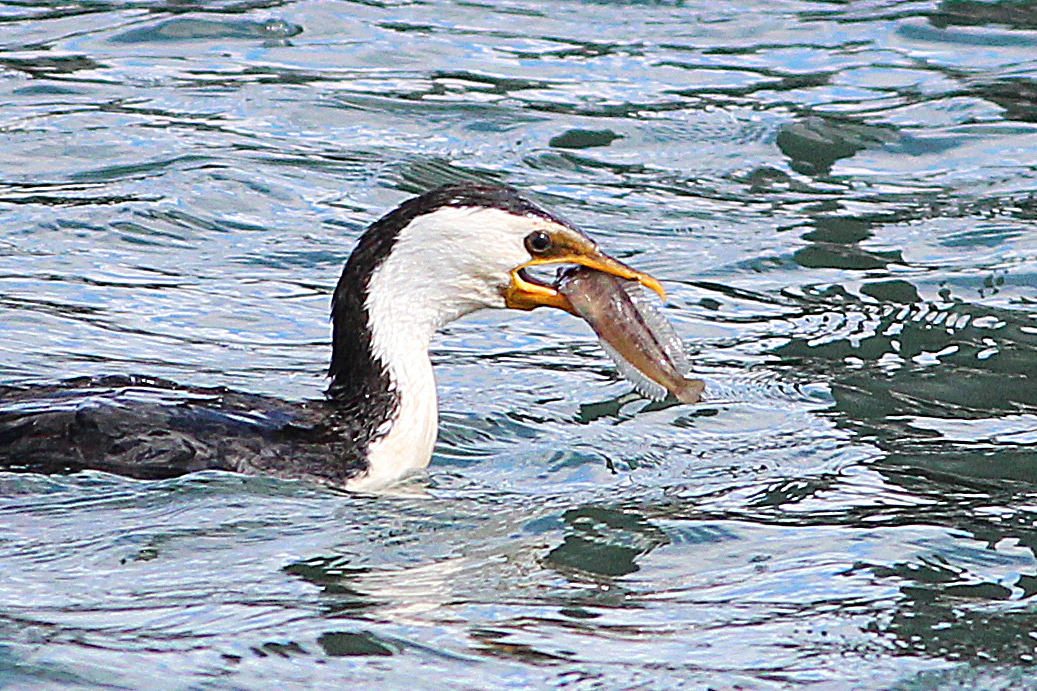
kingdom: Animalia
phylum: Chordata
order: Perciformes
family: Blenniidae
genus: Parablennius
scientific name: Parablennius tasmanianus
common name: Tasmanian blenny
